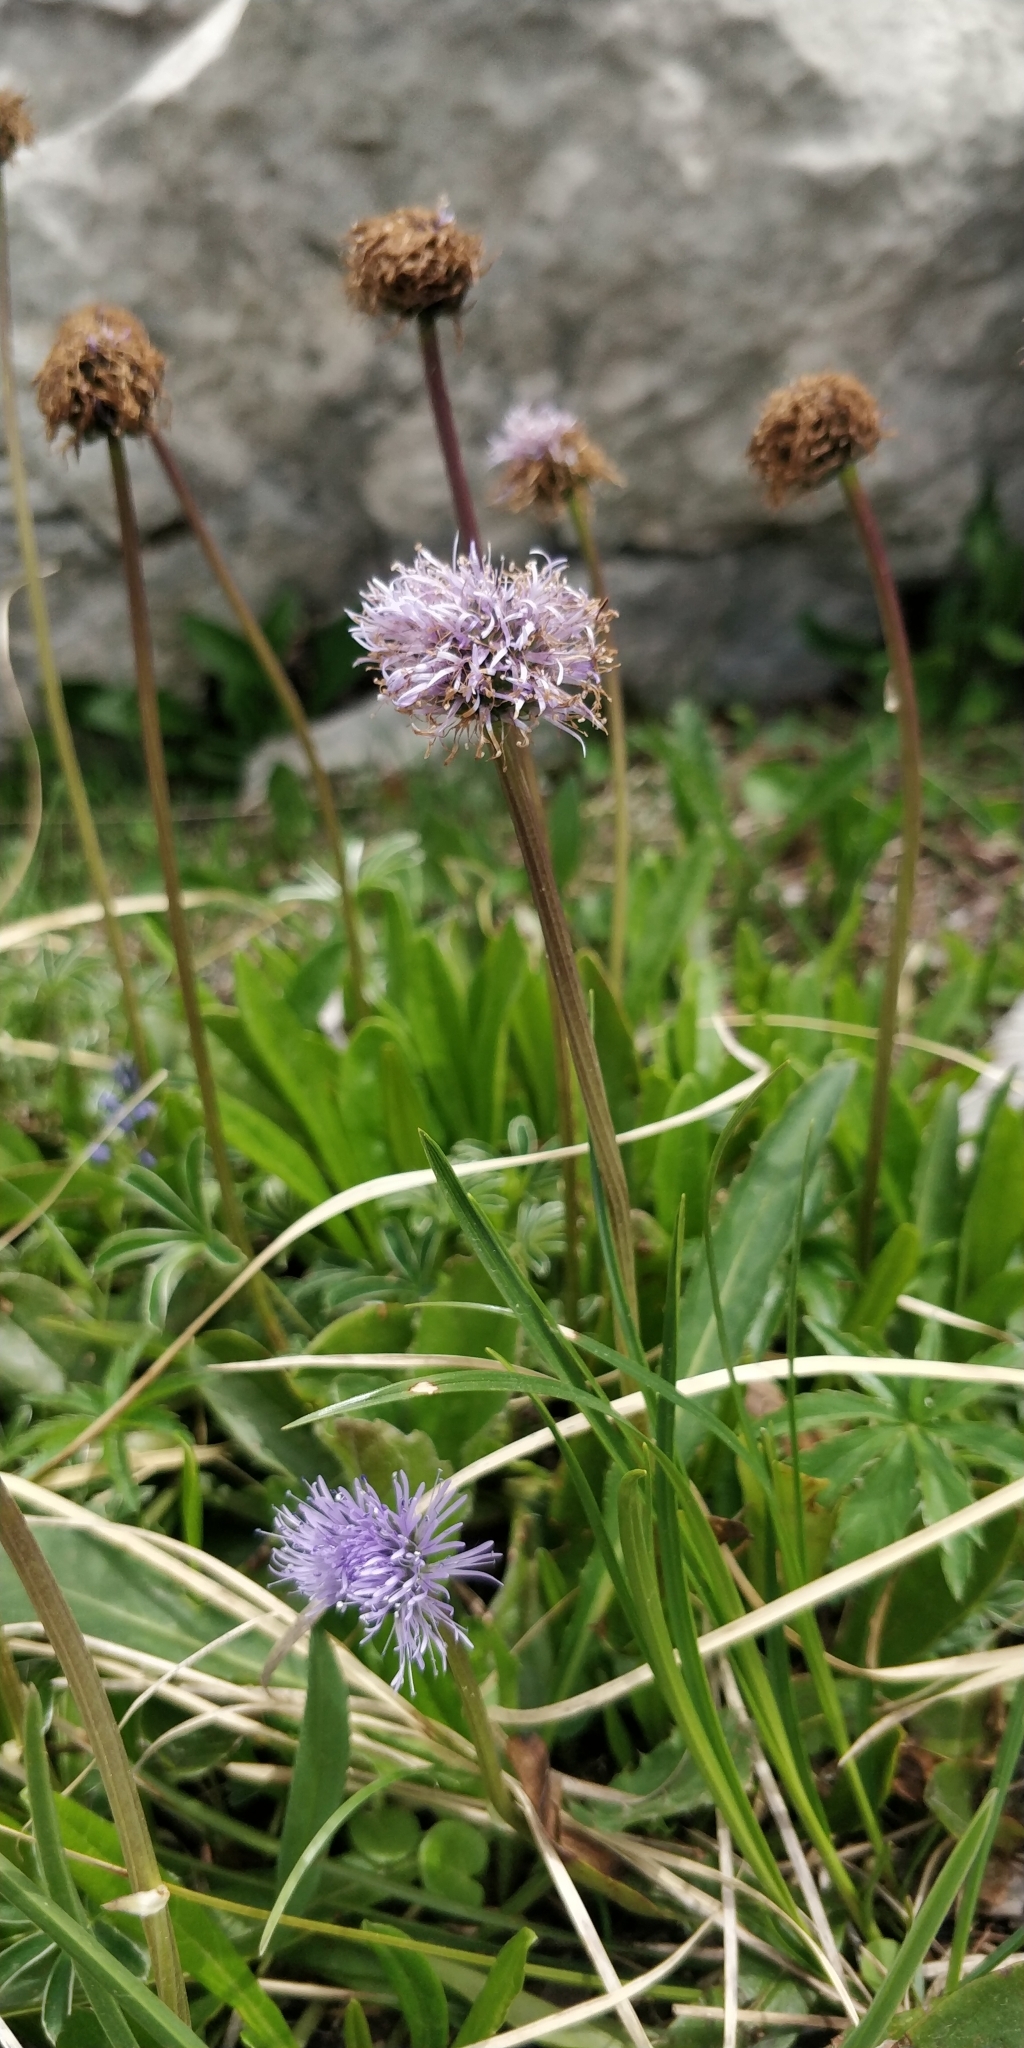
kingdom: Plantae
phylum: Tracheophyta
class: Magnoliopsida
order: Lamiales
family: Plantaginaceae
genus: Globularia
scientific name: Globularia nudicaulis
